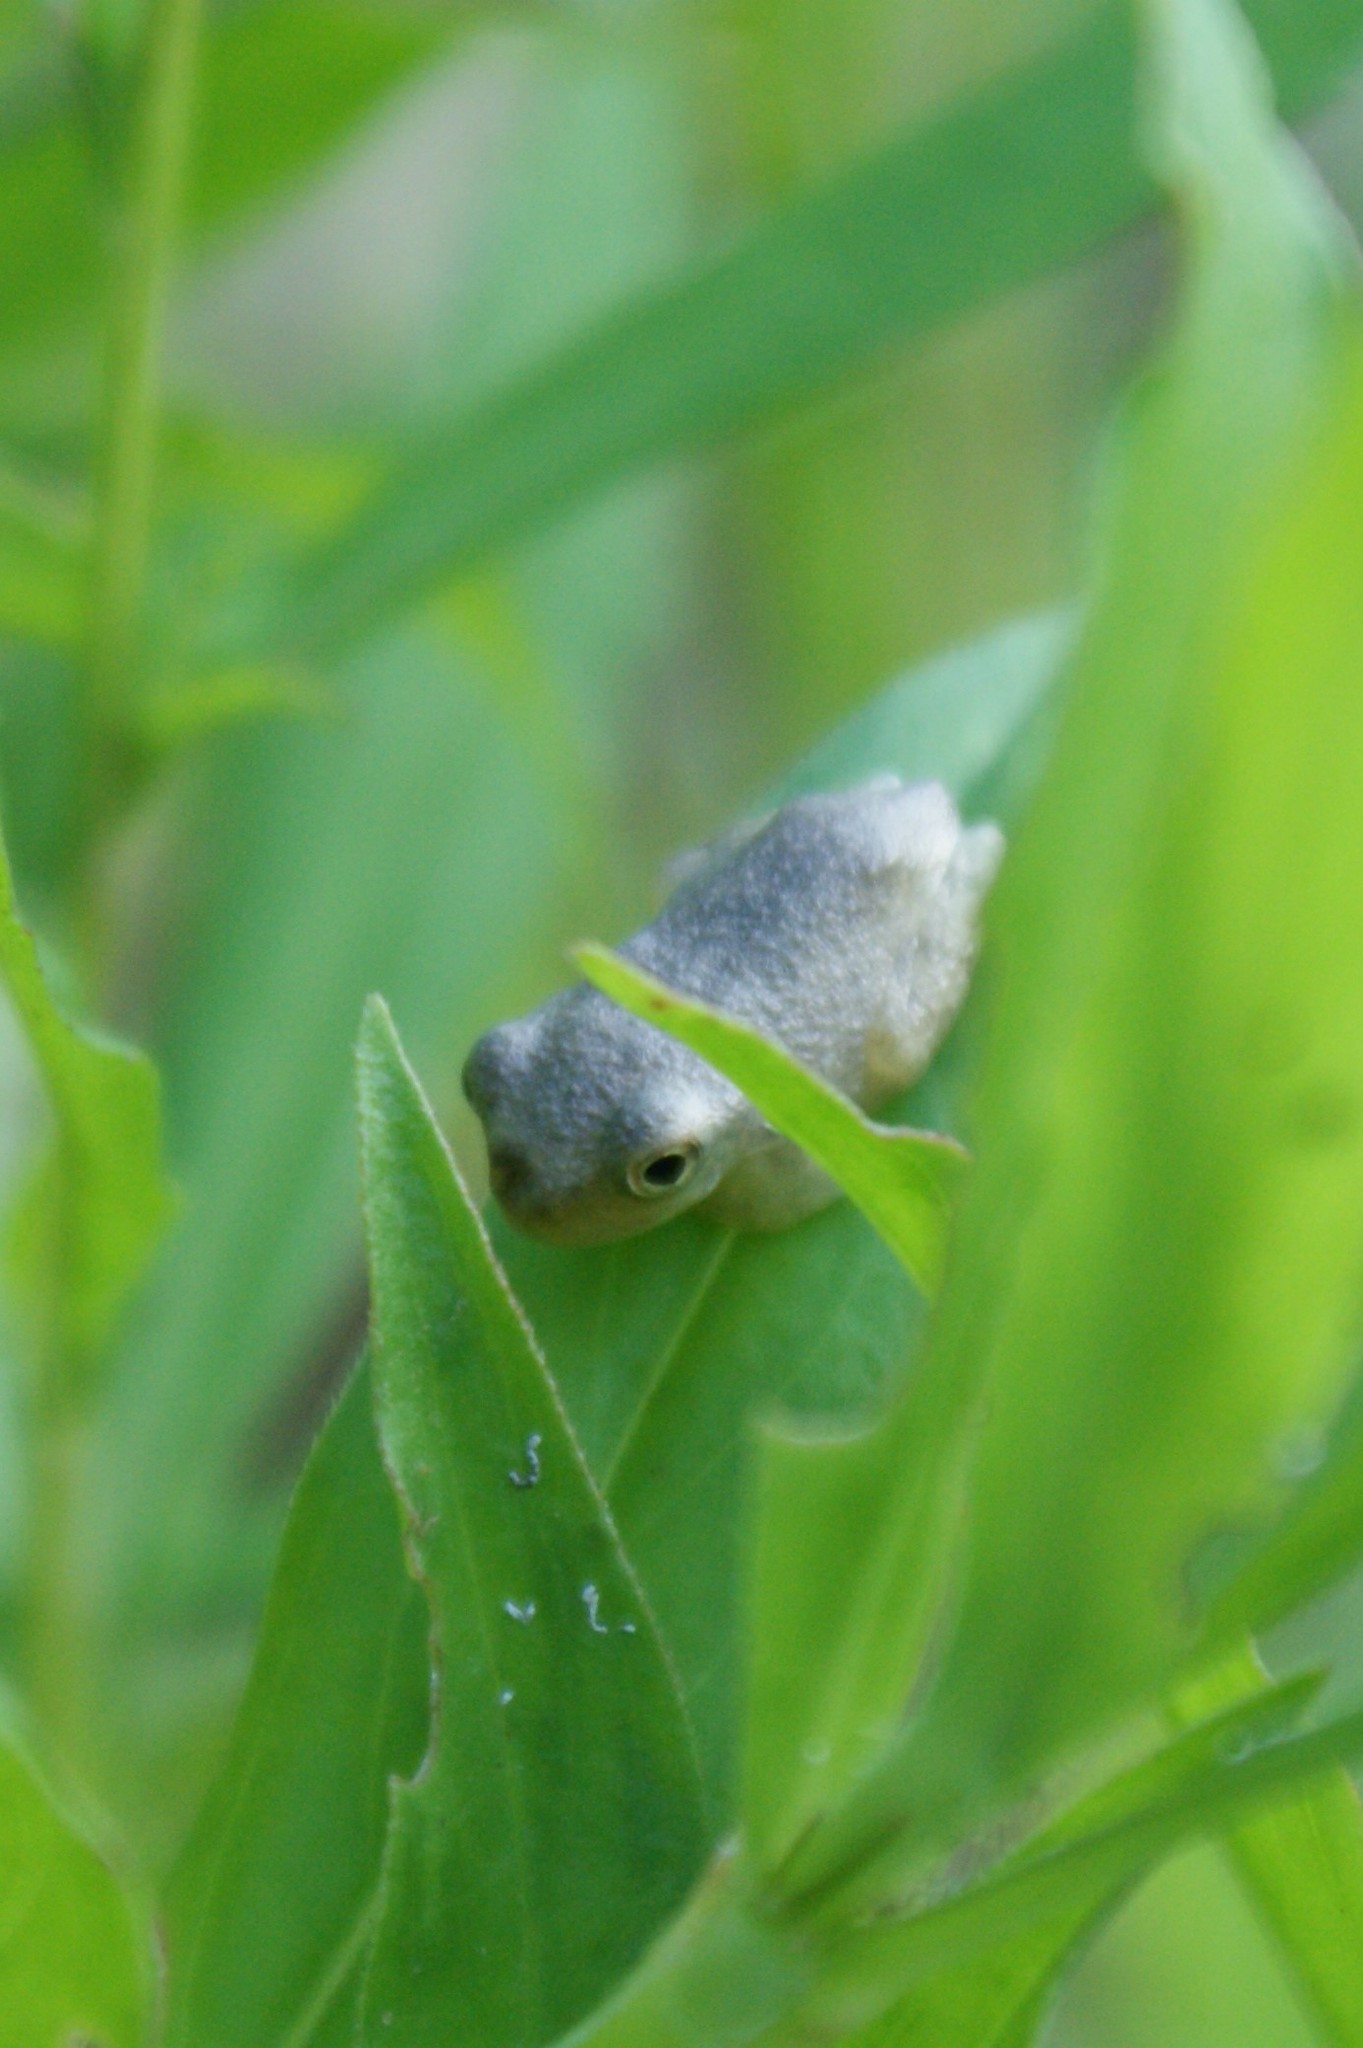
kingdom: Animalia
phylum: Chordata
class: Amphibia
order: Anura
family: Hylidae
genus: Dryophytes
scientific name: Dryophytes chrysoscelis
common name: Cope's gray treefrog
